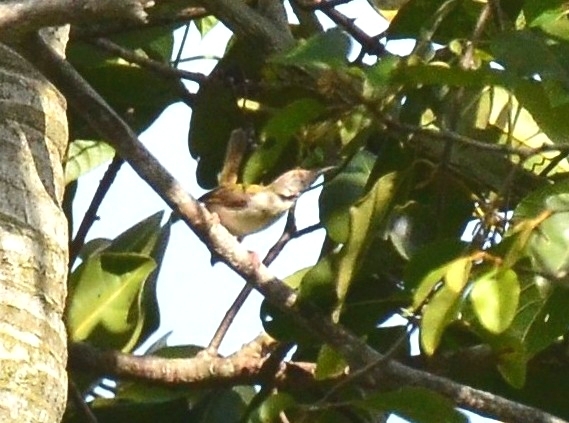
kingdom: Animalia
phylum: Chordata
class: Aves
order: Passeriformes
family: Cisticolidae
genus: Orthotomus
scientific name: Orthotomus sutorius
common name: Common tailorbird
